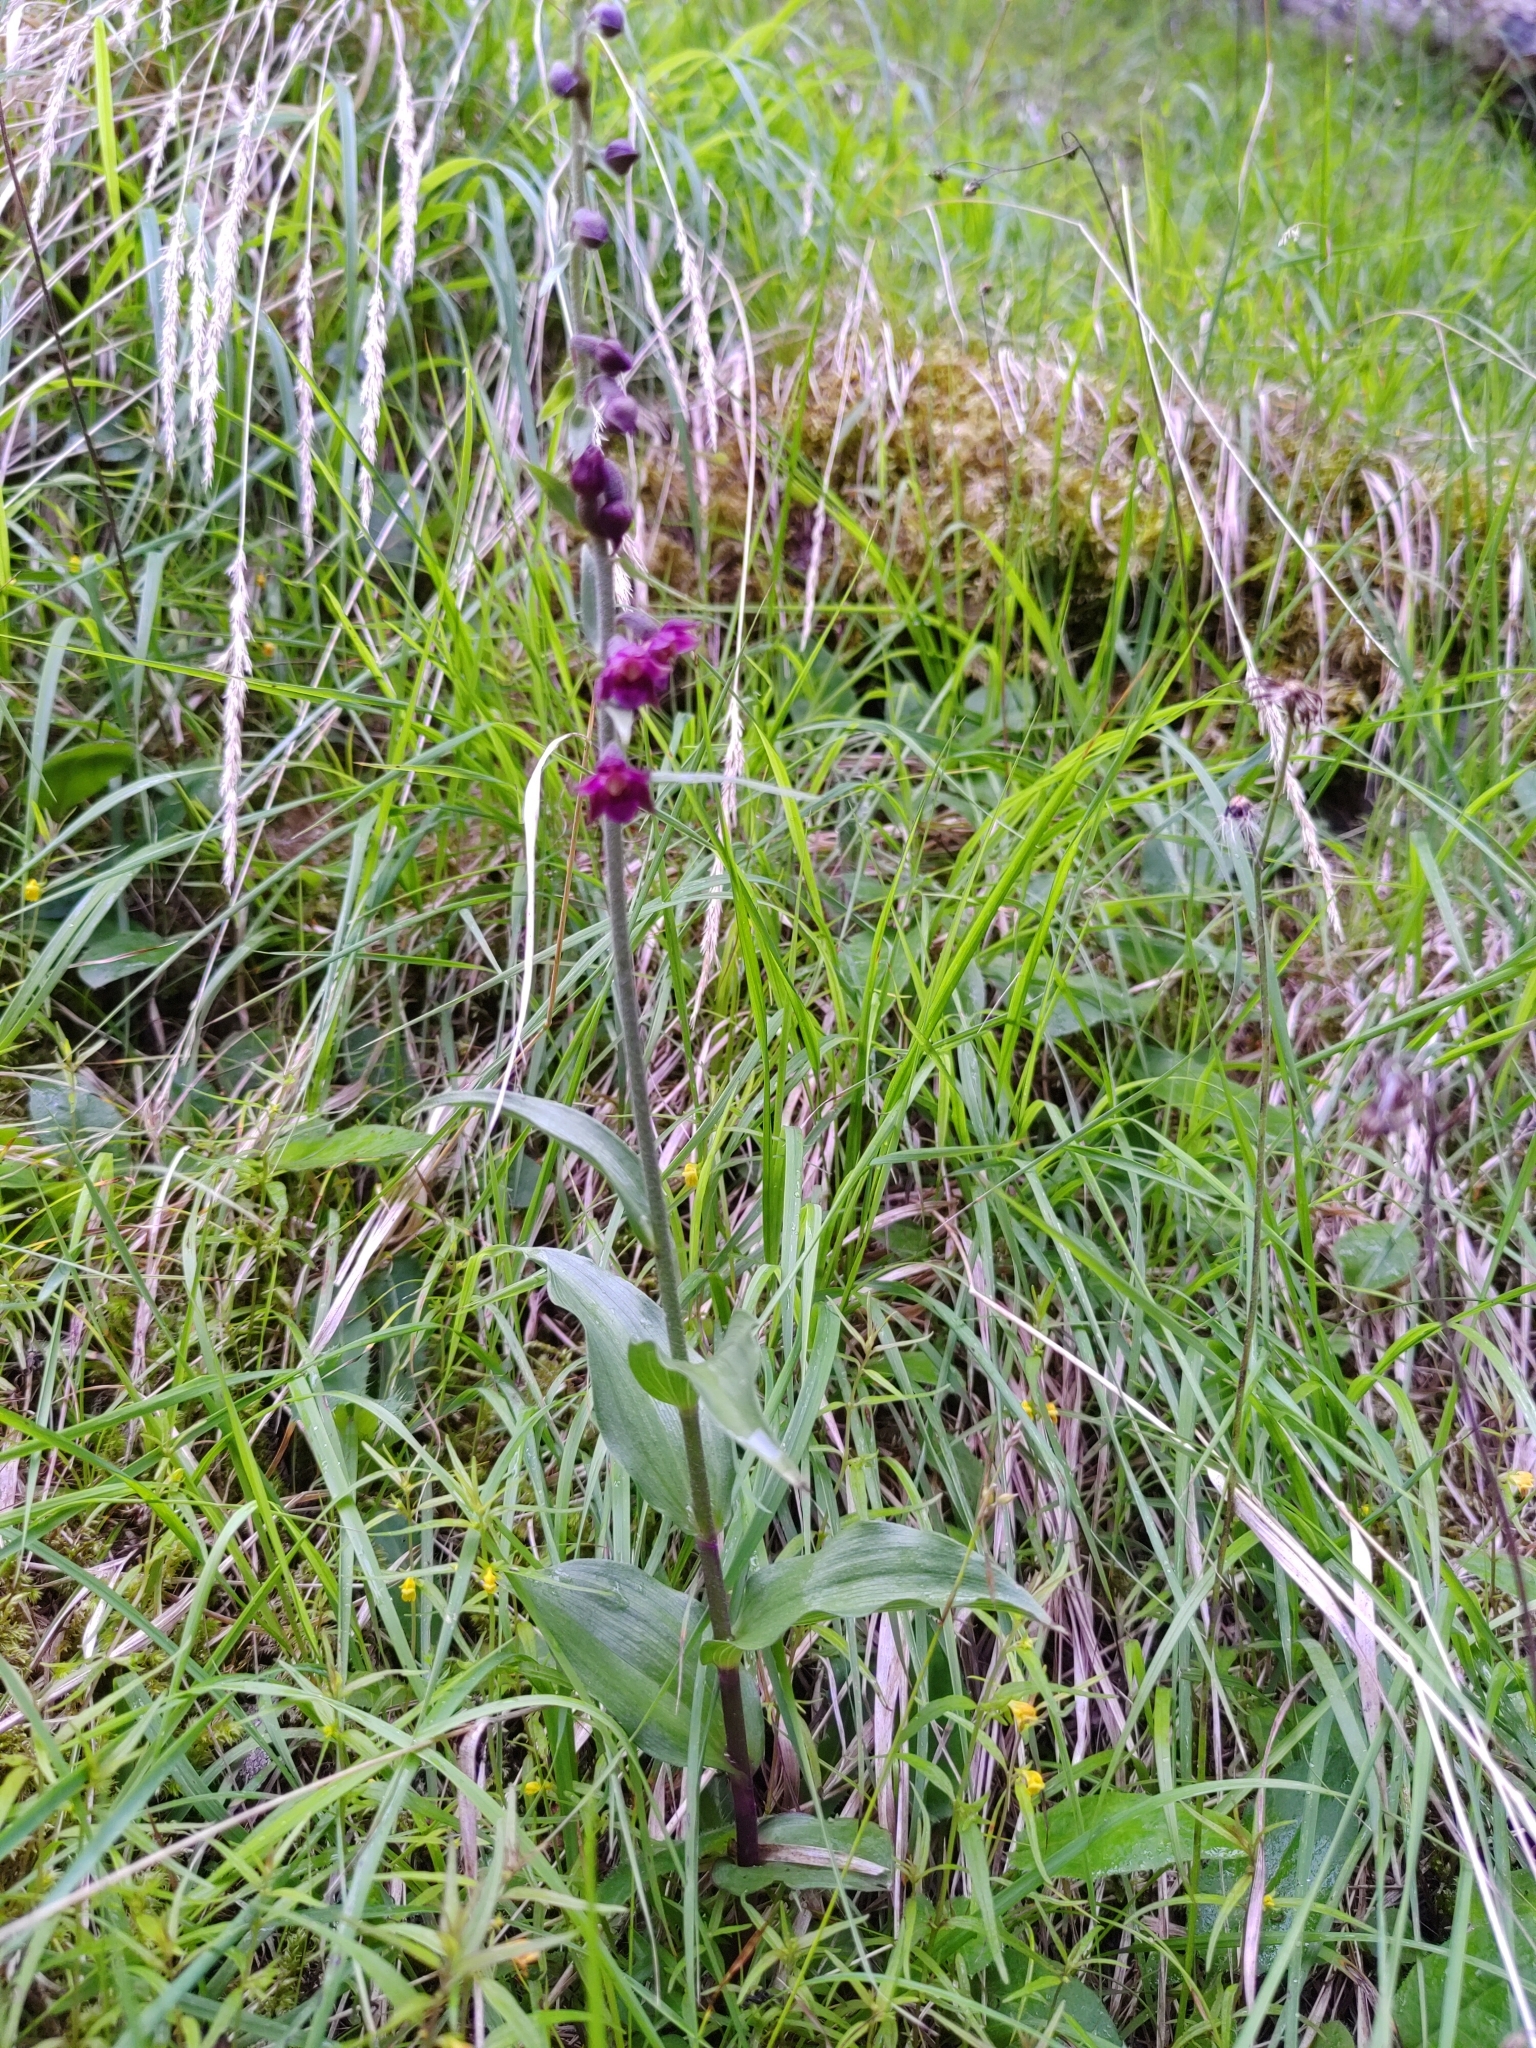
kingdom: Plantae
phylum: Tracheophyta
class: Liliopsida
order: Asparagales
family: Orchidaceae
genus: Epipactis
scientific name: Epipactis atrorubens
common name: Dark-red helleborine
